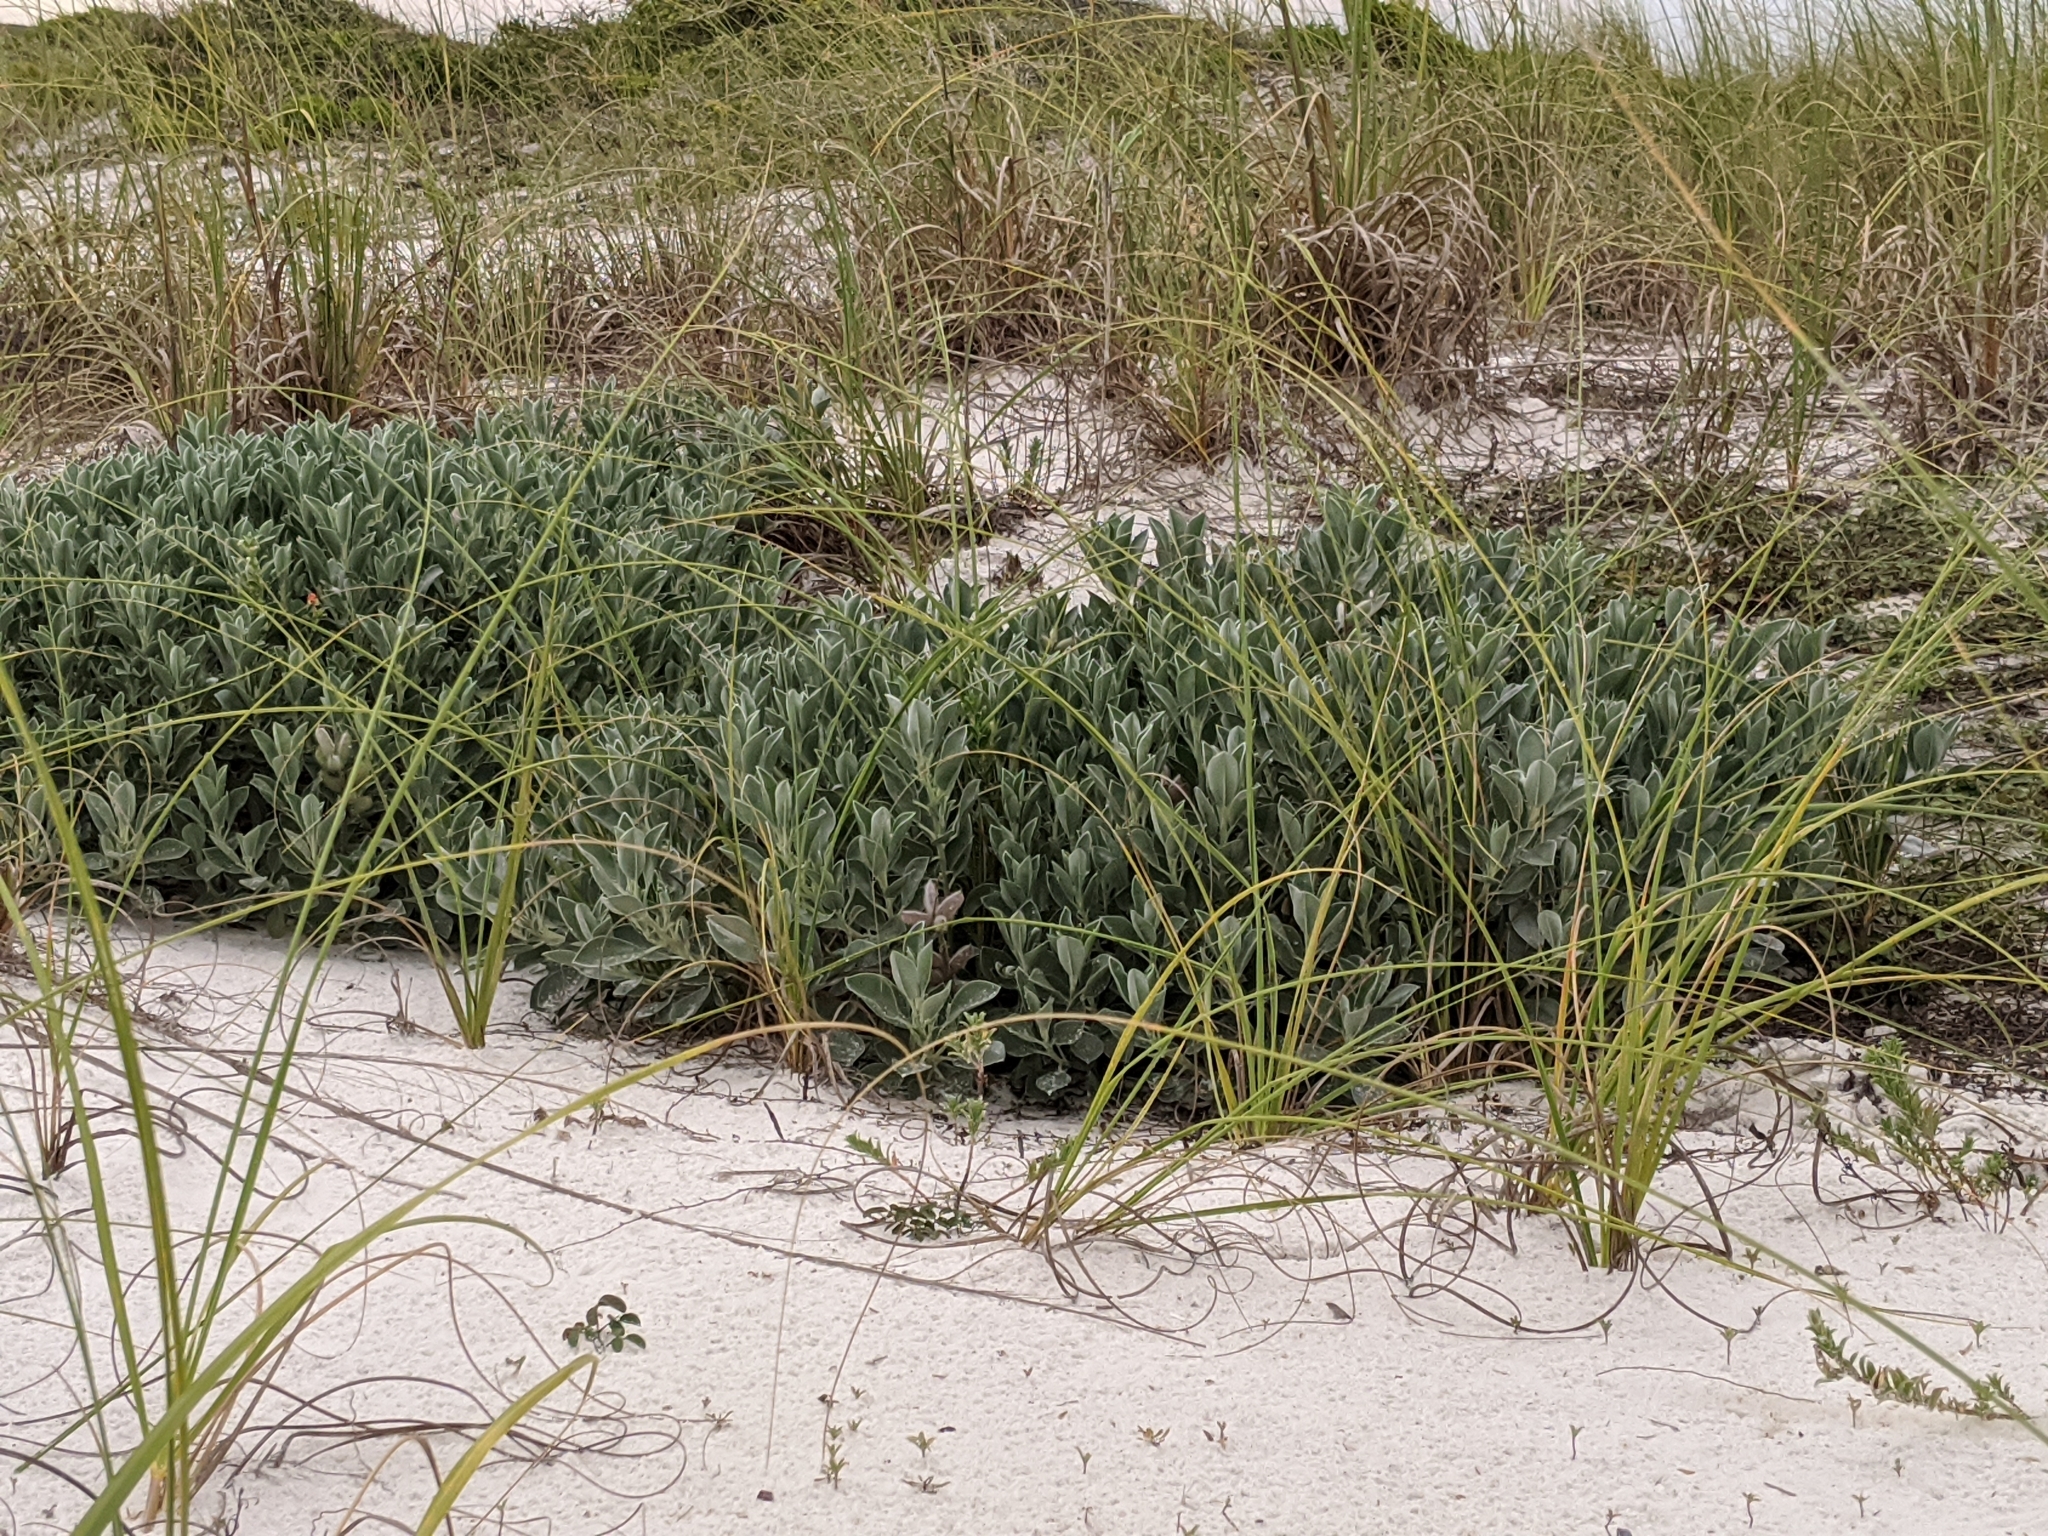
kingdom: Plantae
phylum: Tracheophyta
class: Magnoliopsida
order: Fabales
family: Fabaceae
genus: Lupinus
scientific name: Lupinus westianus
